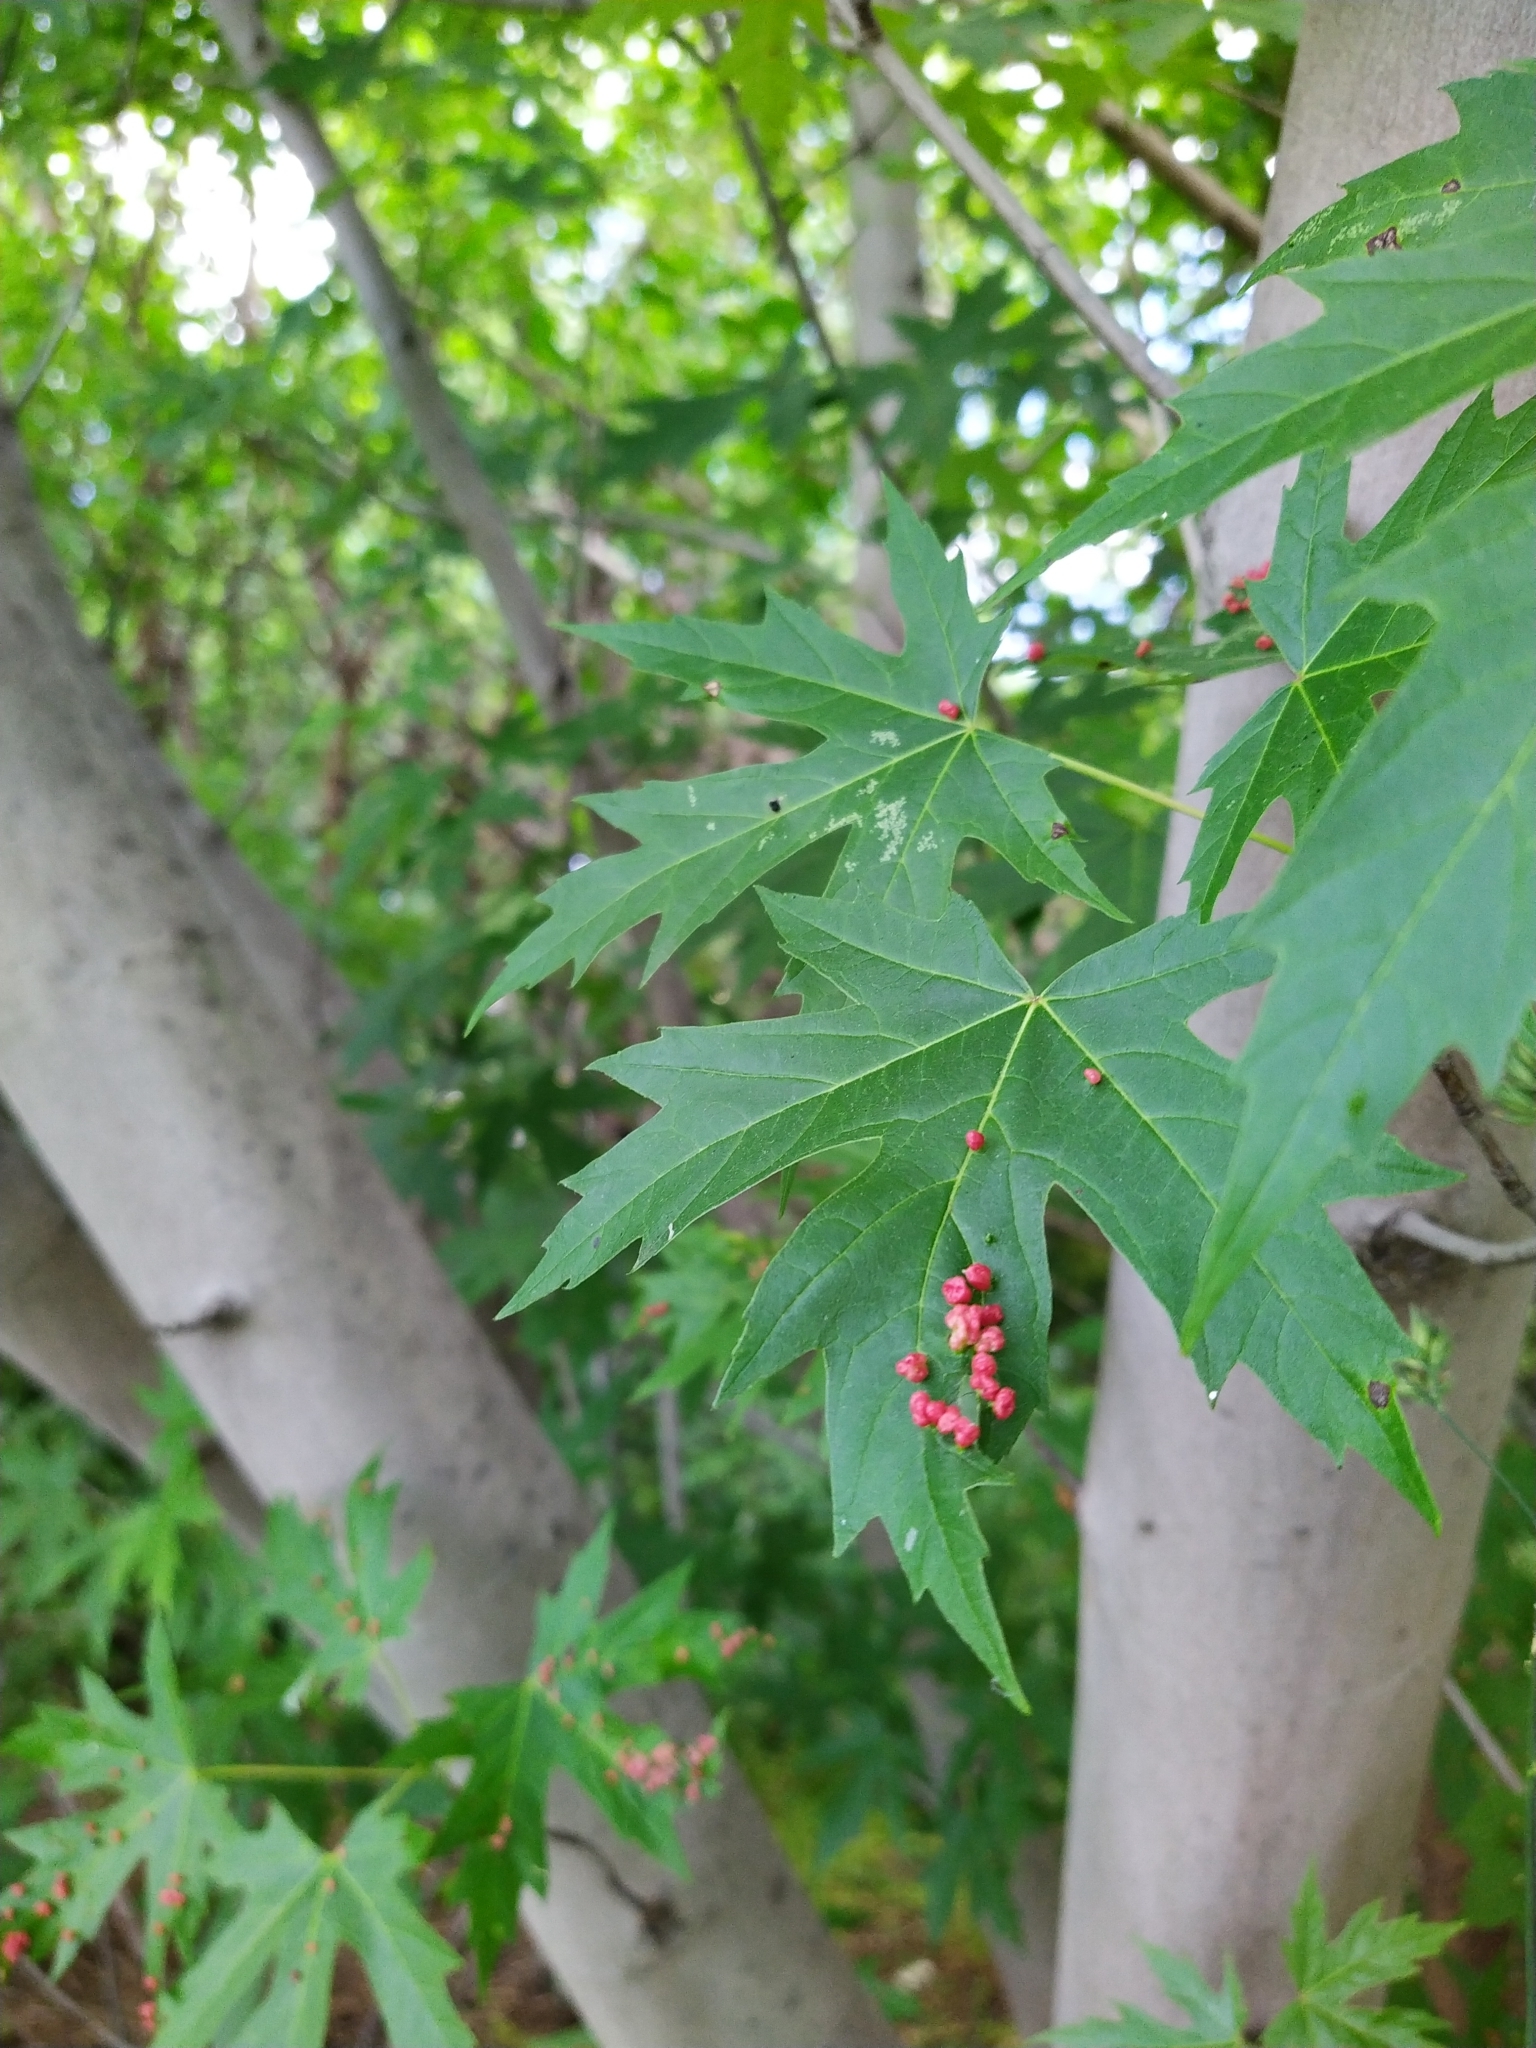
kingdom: Animalia
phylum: Arthropoda
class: Arachnida
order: Trombidiformes
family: Eriophyidae
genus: Vasates
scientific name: Vasates quadripedes
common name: Maple bladder gall mite
